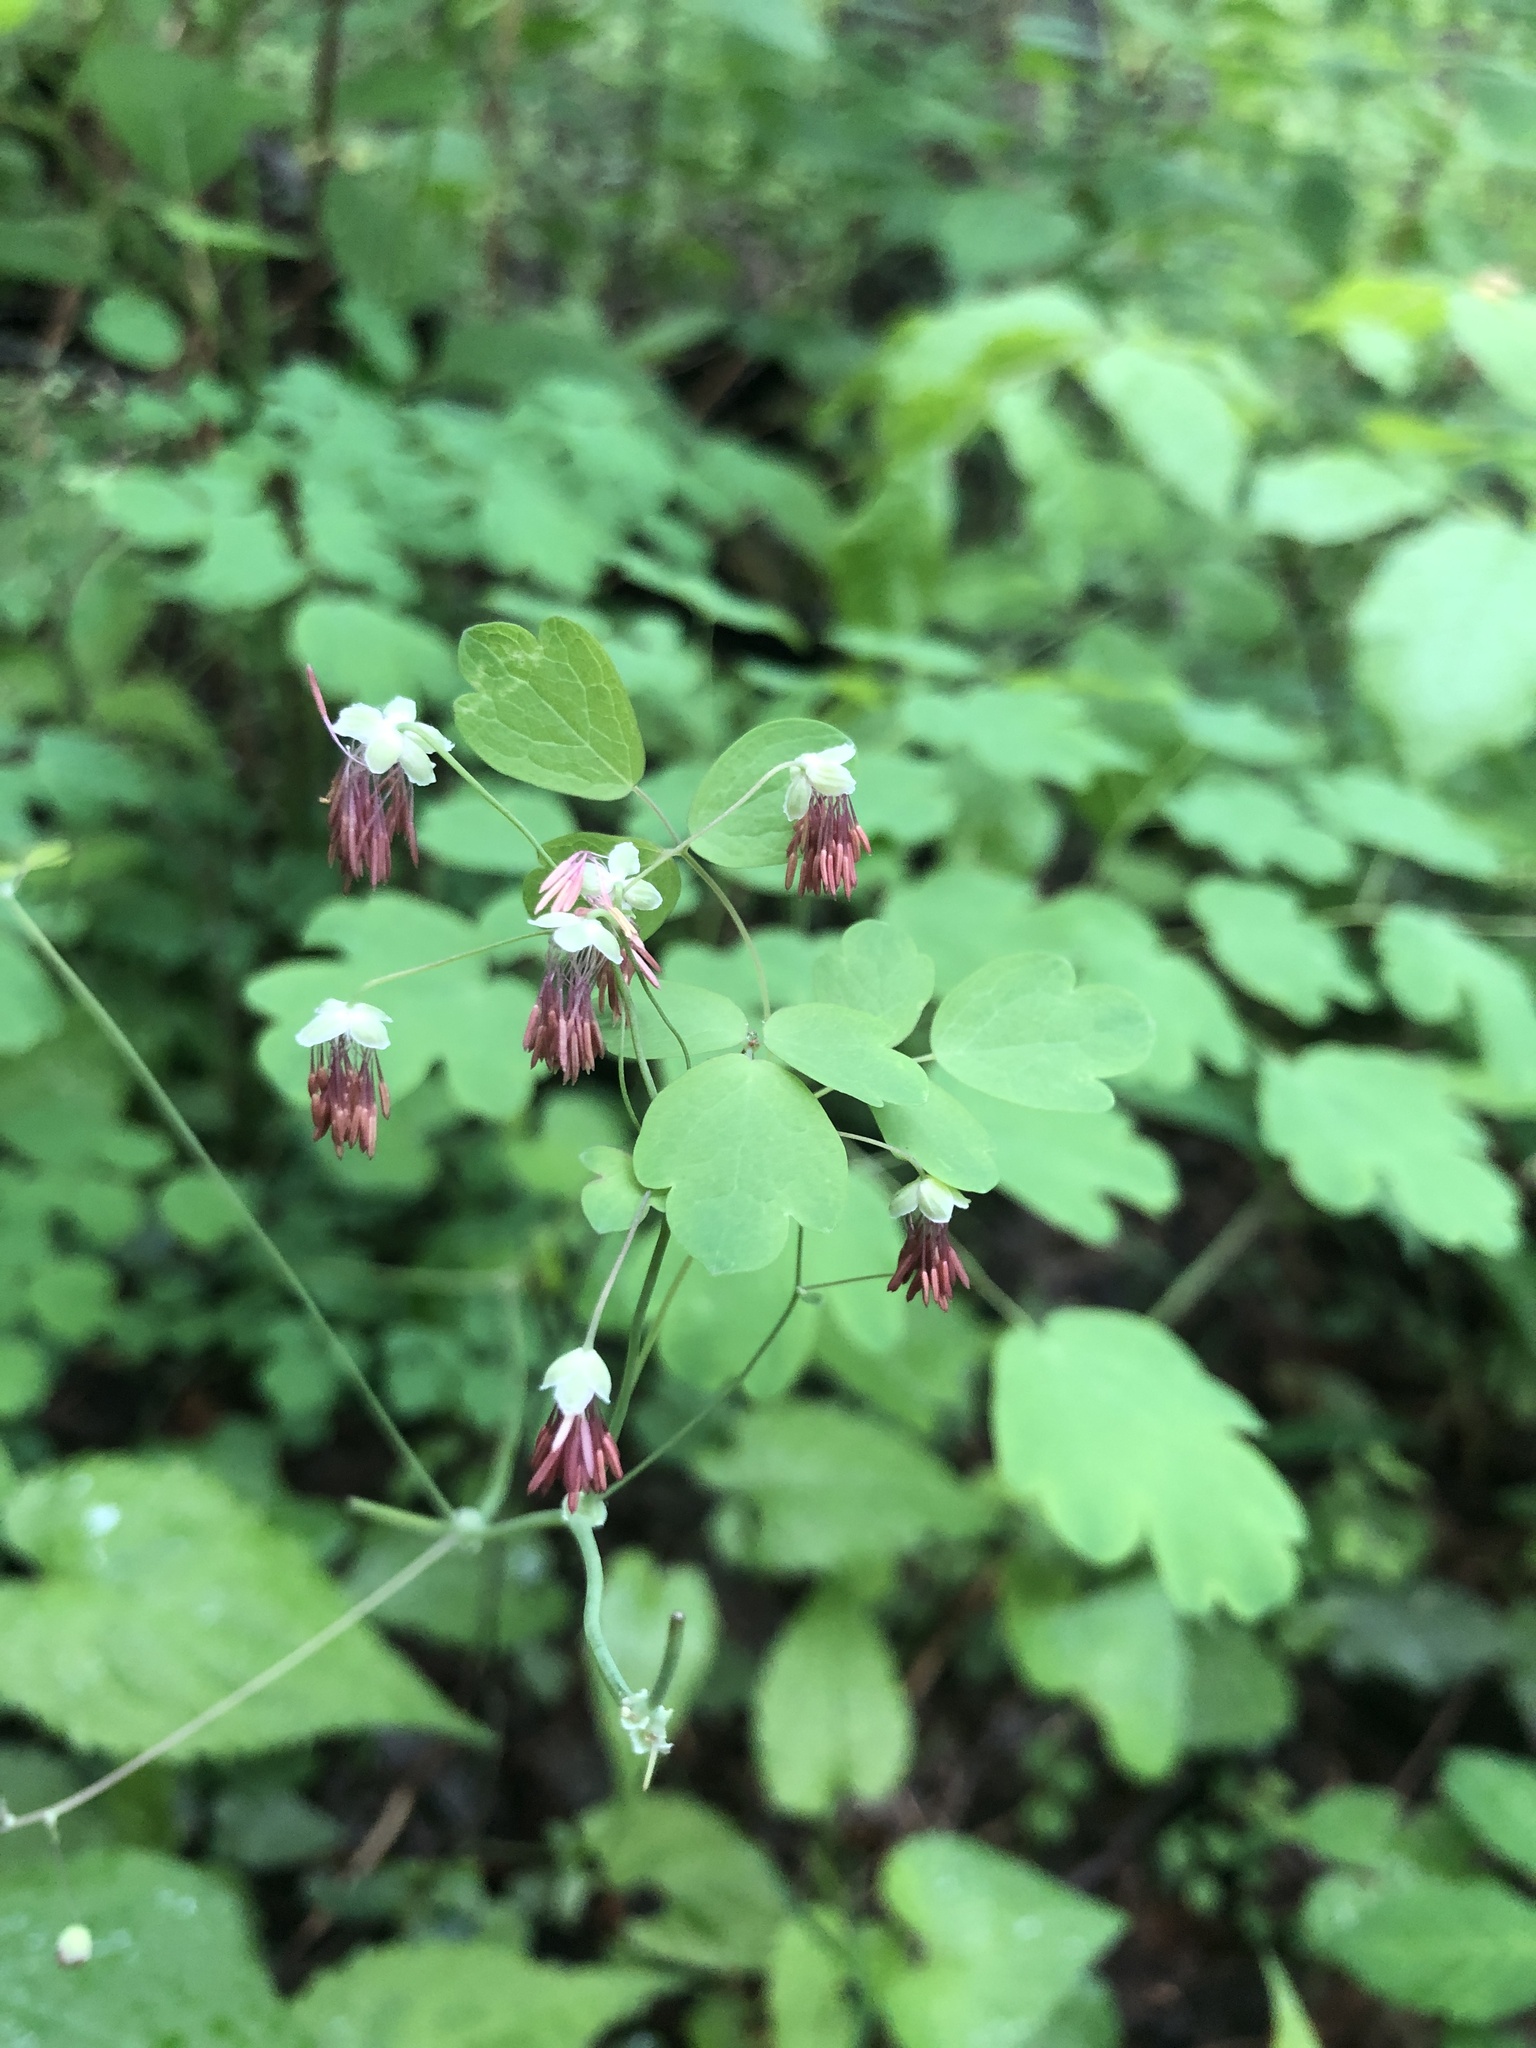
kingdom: Plantae
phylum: Tracheophyta
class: Magnoliopsida
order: Ranunculales
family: Ranunculaceae
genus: Thalictrum
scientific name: Thalictrum dioicum
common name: Early meadow-rue
